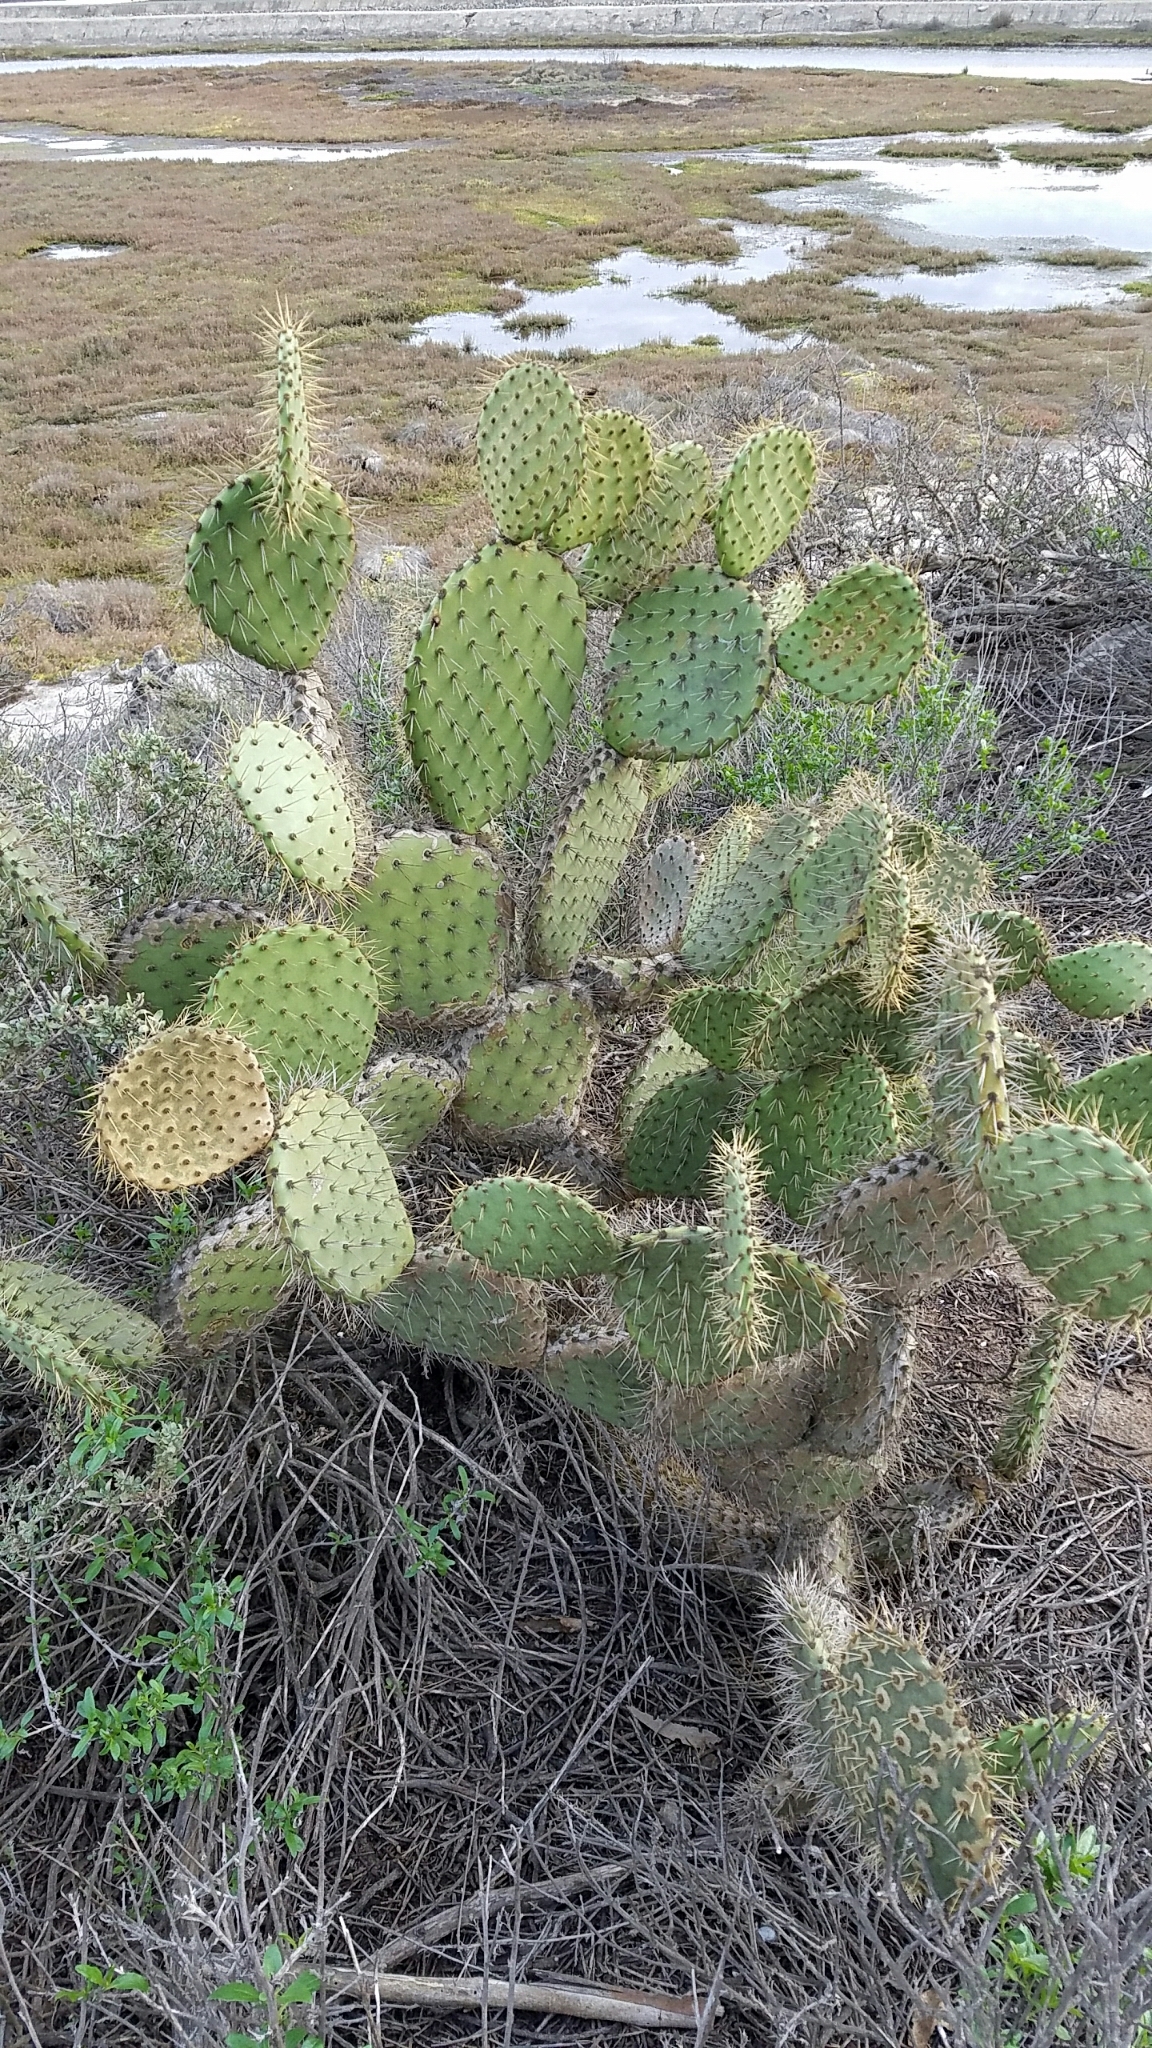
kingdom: Plantae
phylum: Tracheophyta
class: Magnoliopsida
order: Caryophyllales
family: Cactaceae
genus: Opuntia
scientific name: Opuntia oricola
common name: Chaparral prickly-pear
